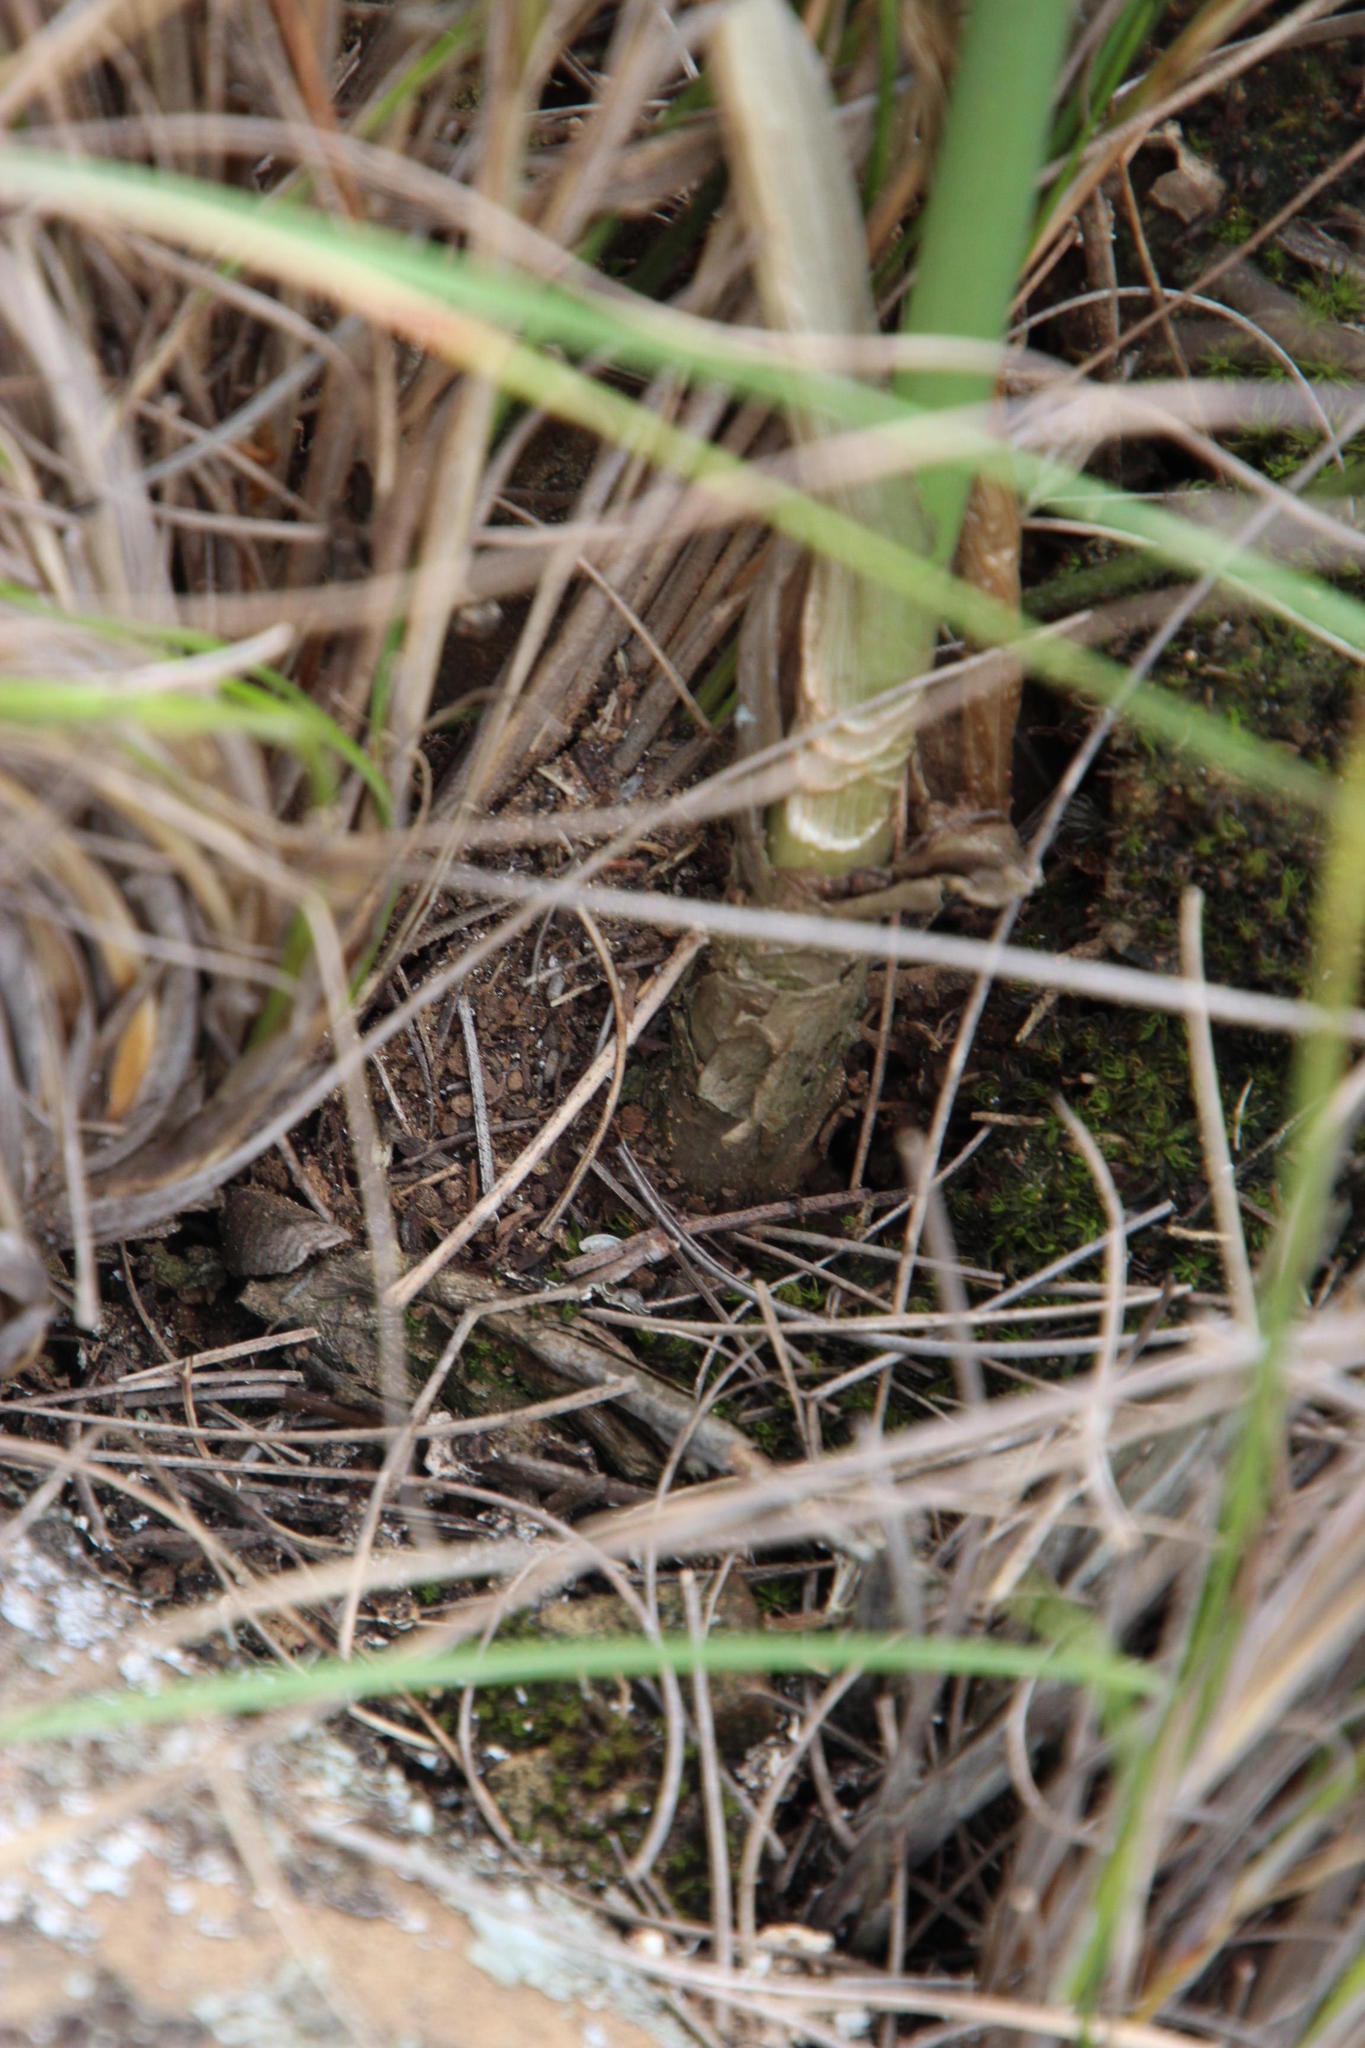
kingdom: Plantae
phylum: Tracheophyta
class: Liliopsida
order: Asparagales
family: Asparagaceae
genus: Drimia
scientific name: Drimia anomala
